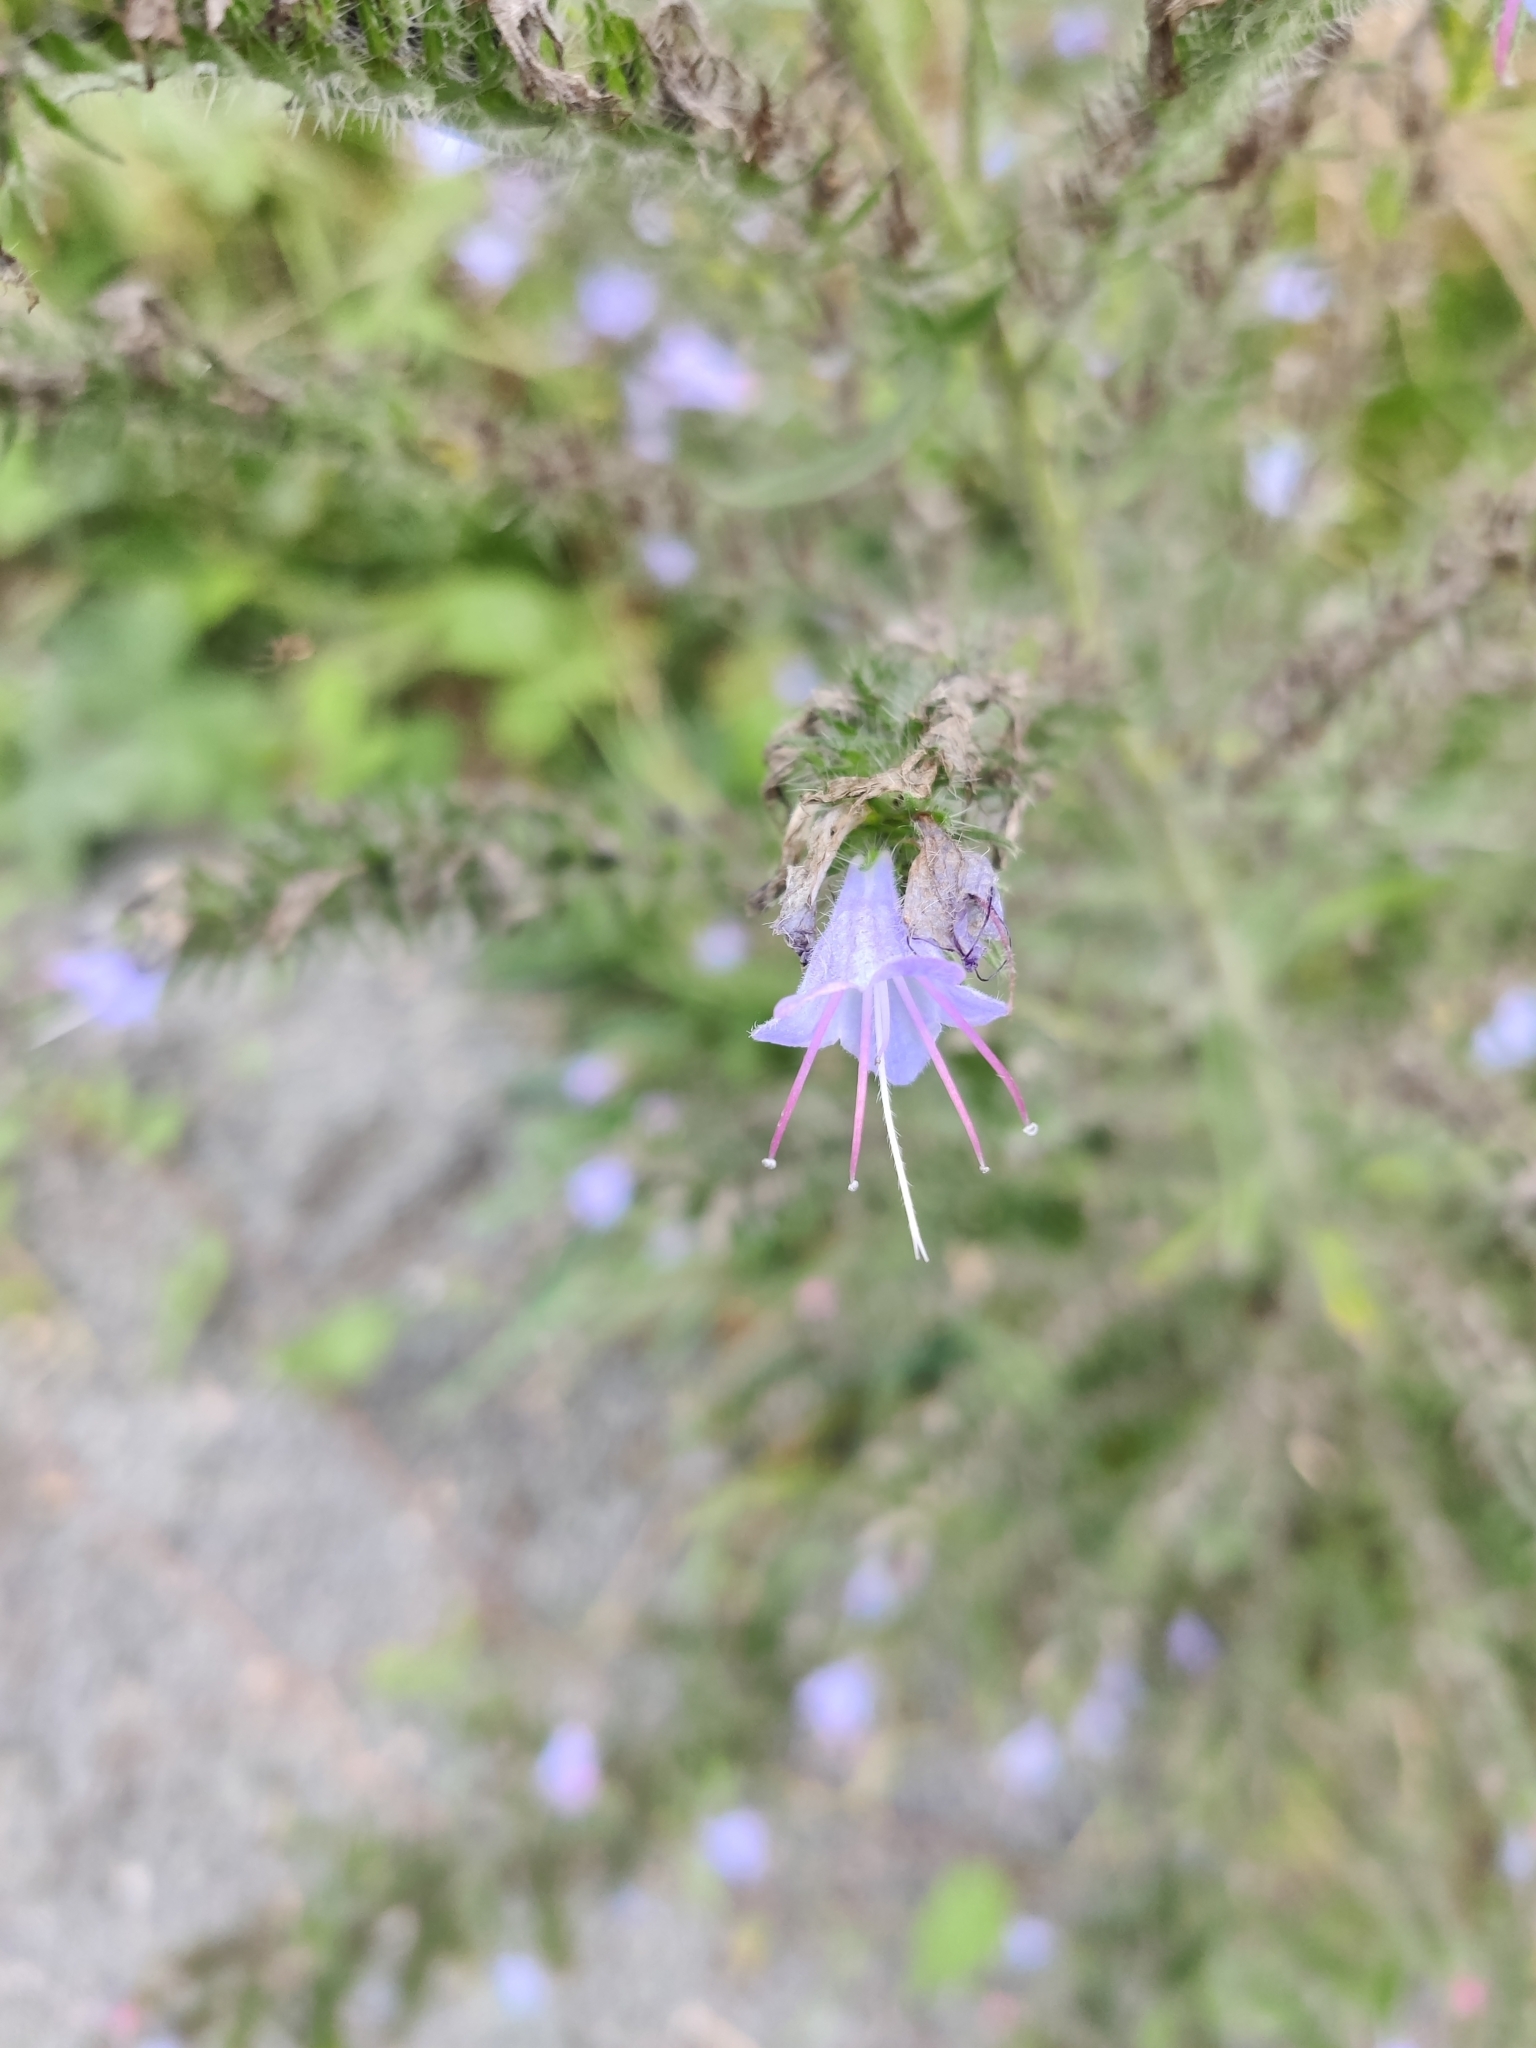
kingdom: Plantae
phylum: Tracheophyta
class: Magnoliopsida
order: Boraginales
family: Boraginaceae
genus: Echium
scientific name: Echium vulgare
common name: Common viper's bugloss
